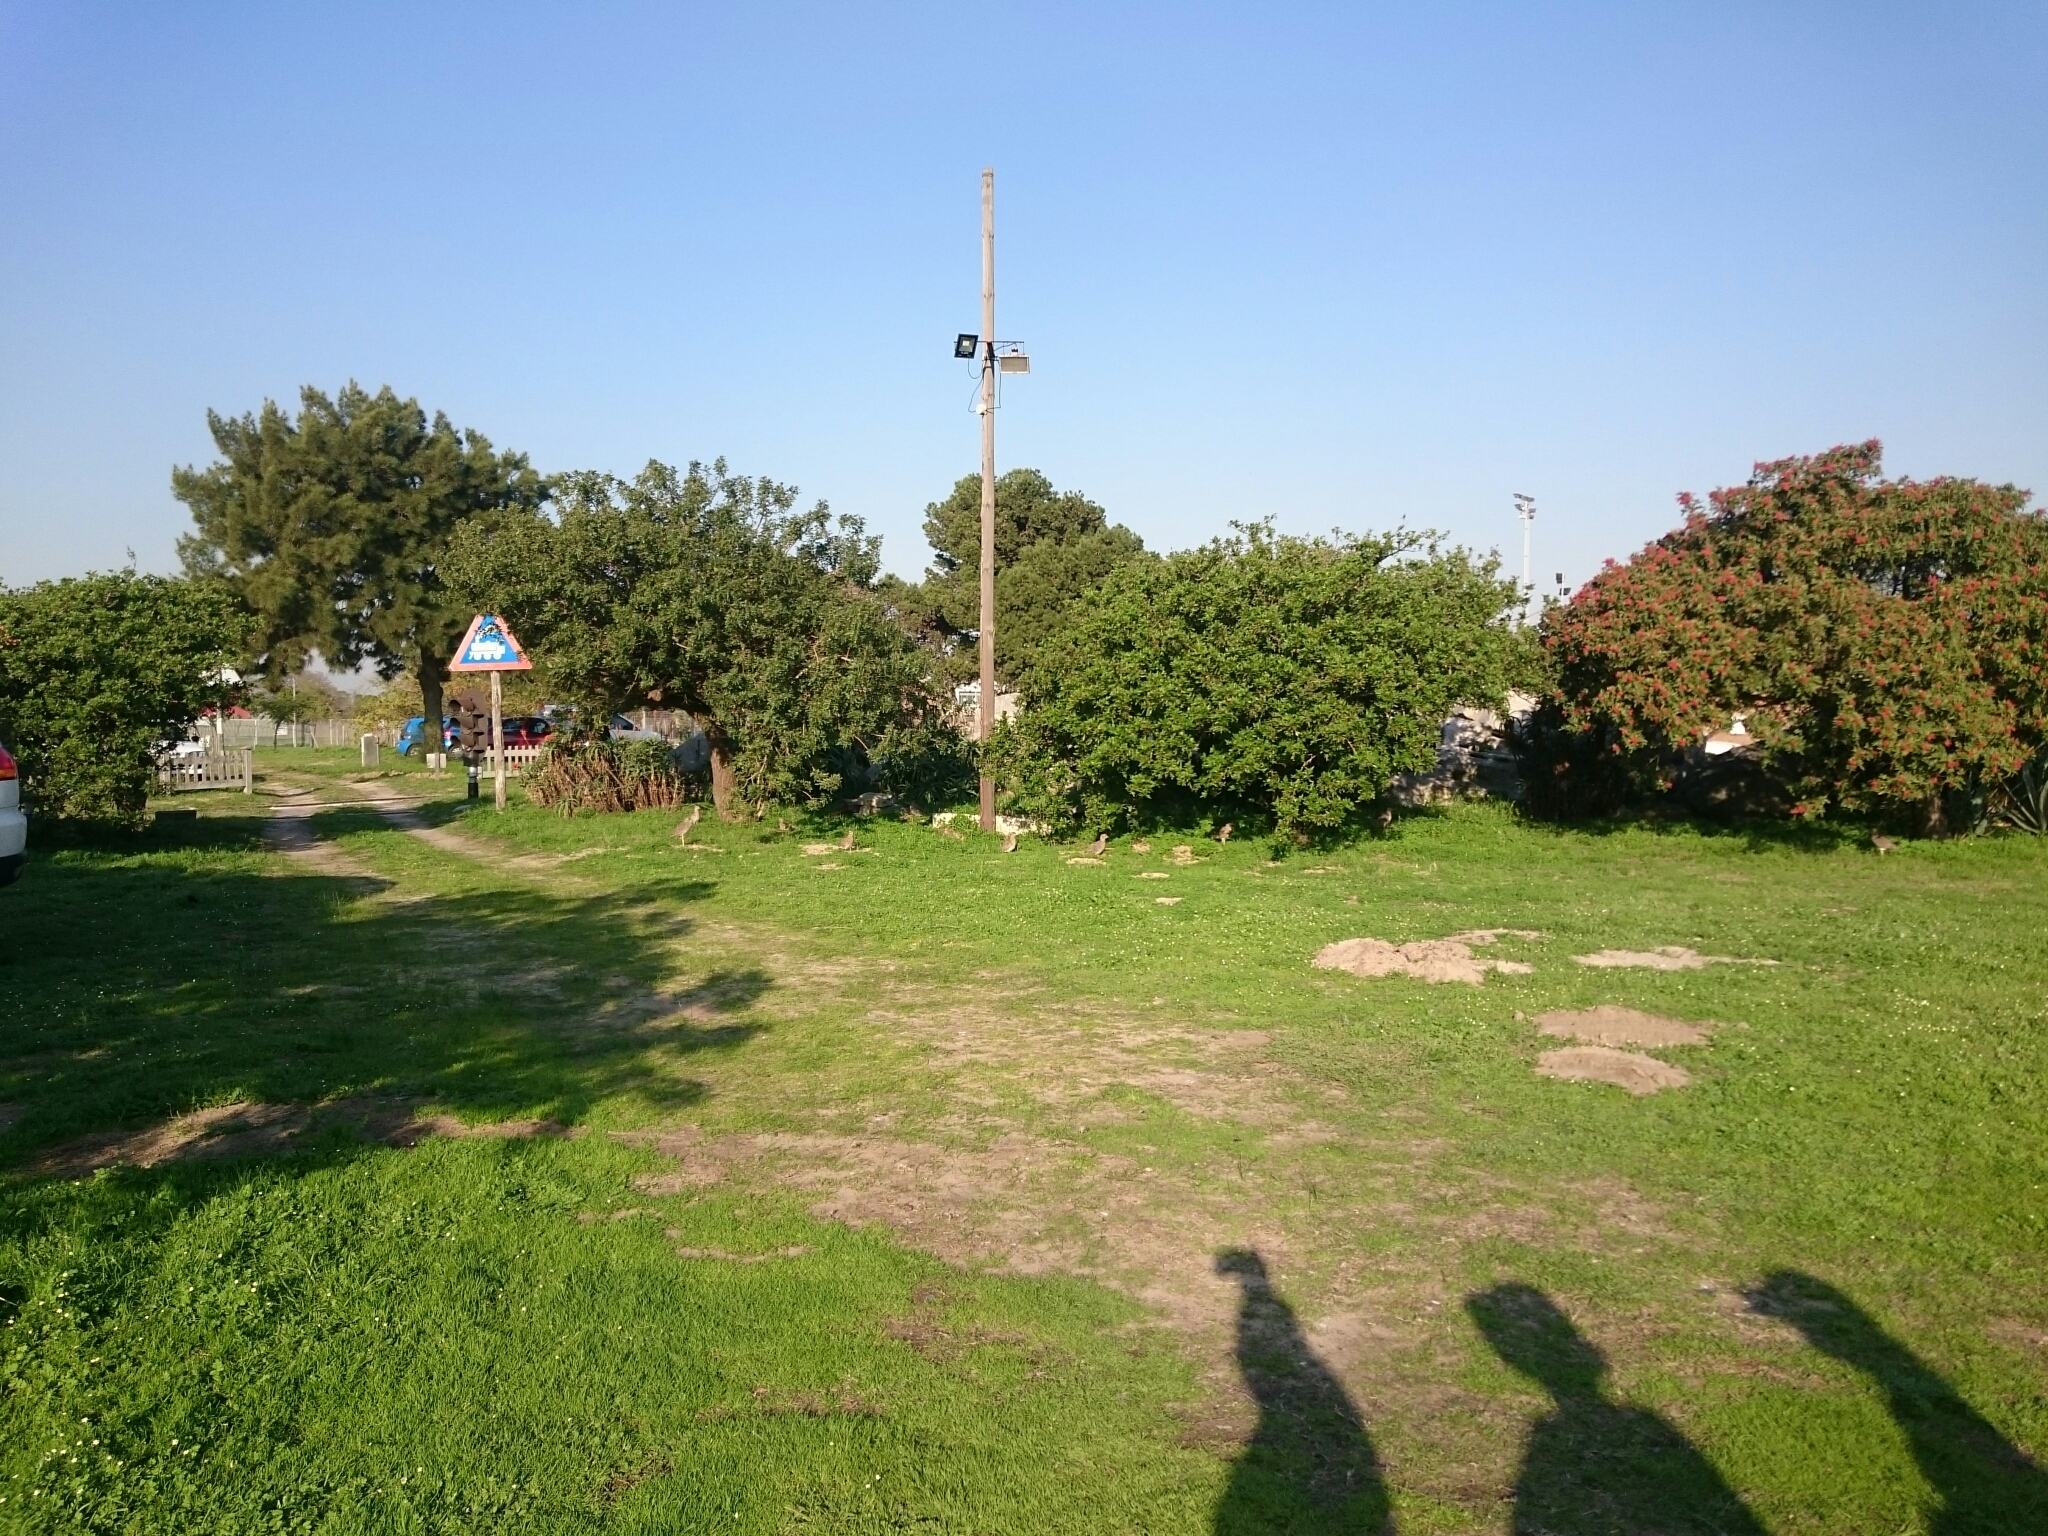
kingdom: Animalia
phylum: Chordata
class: Aves
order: Charadriiformes
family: Burhinidae
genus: Burhinus
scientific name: Burhinus capensis
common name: Spotted thick-knee
